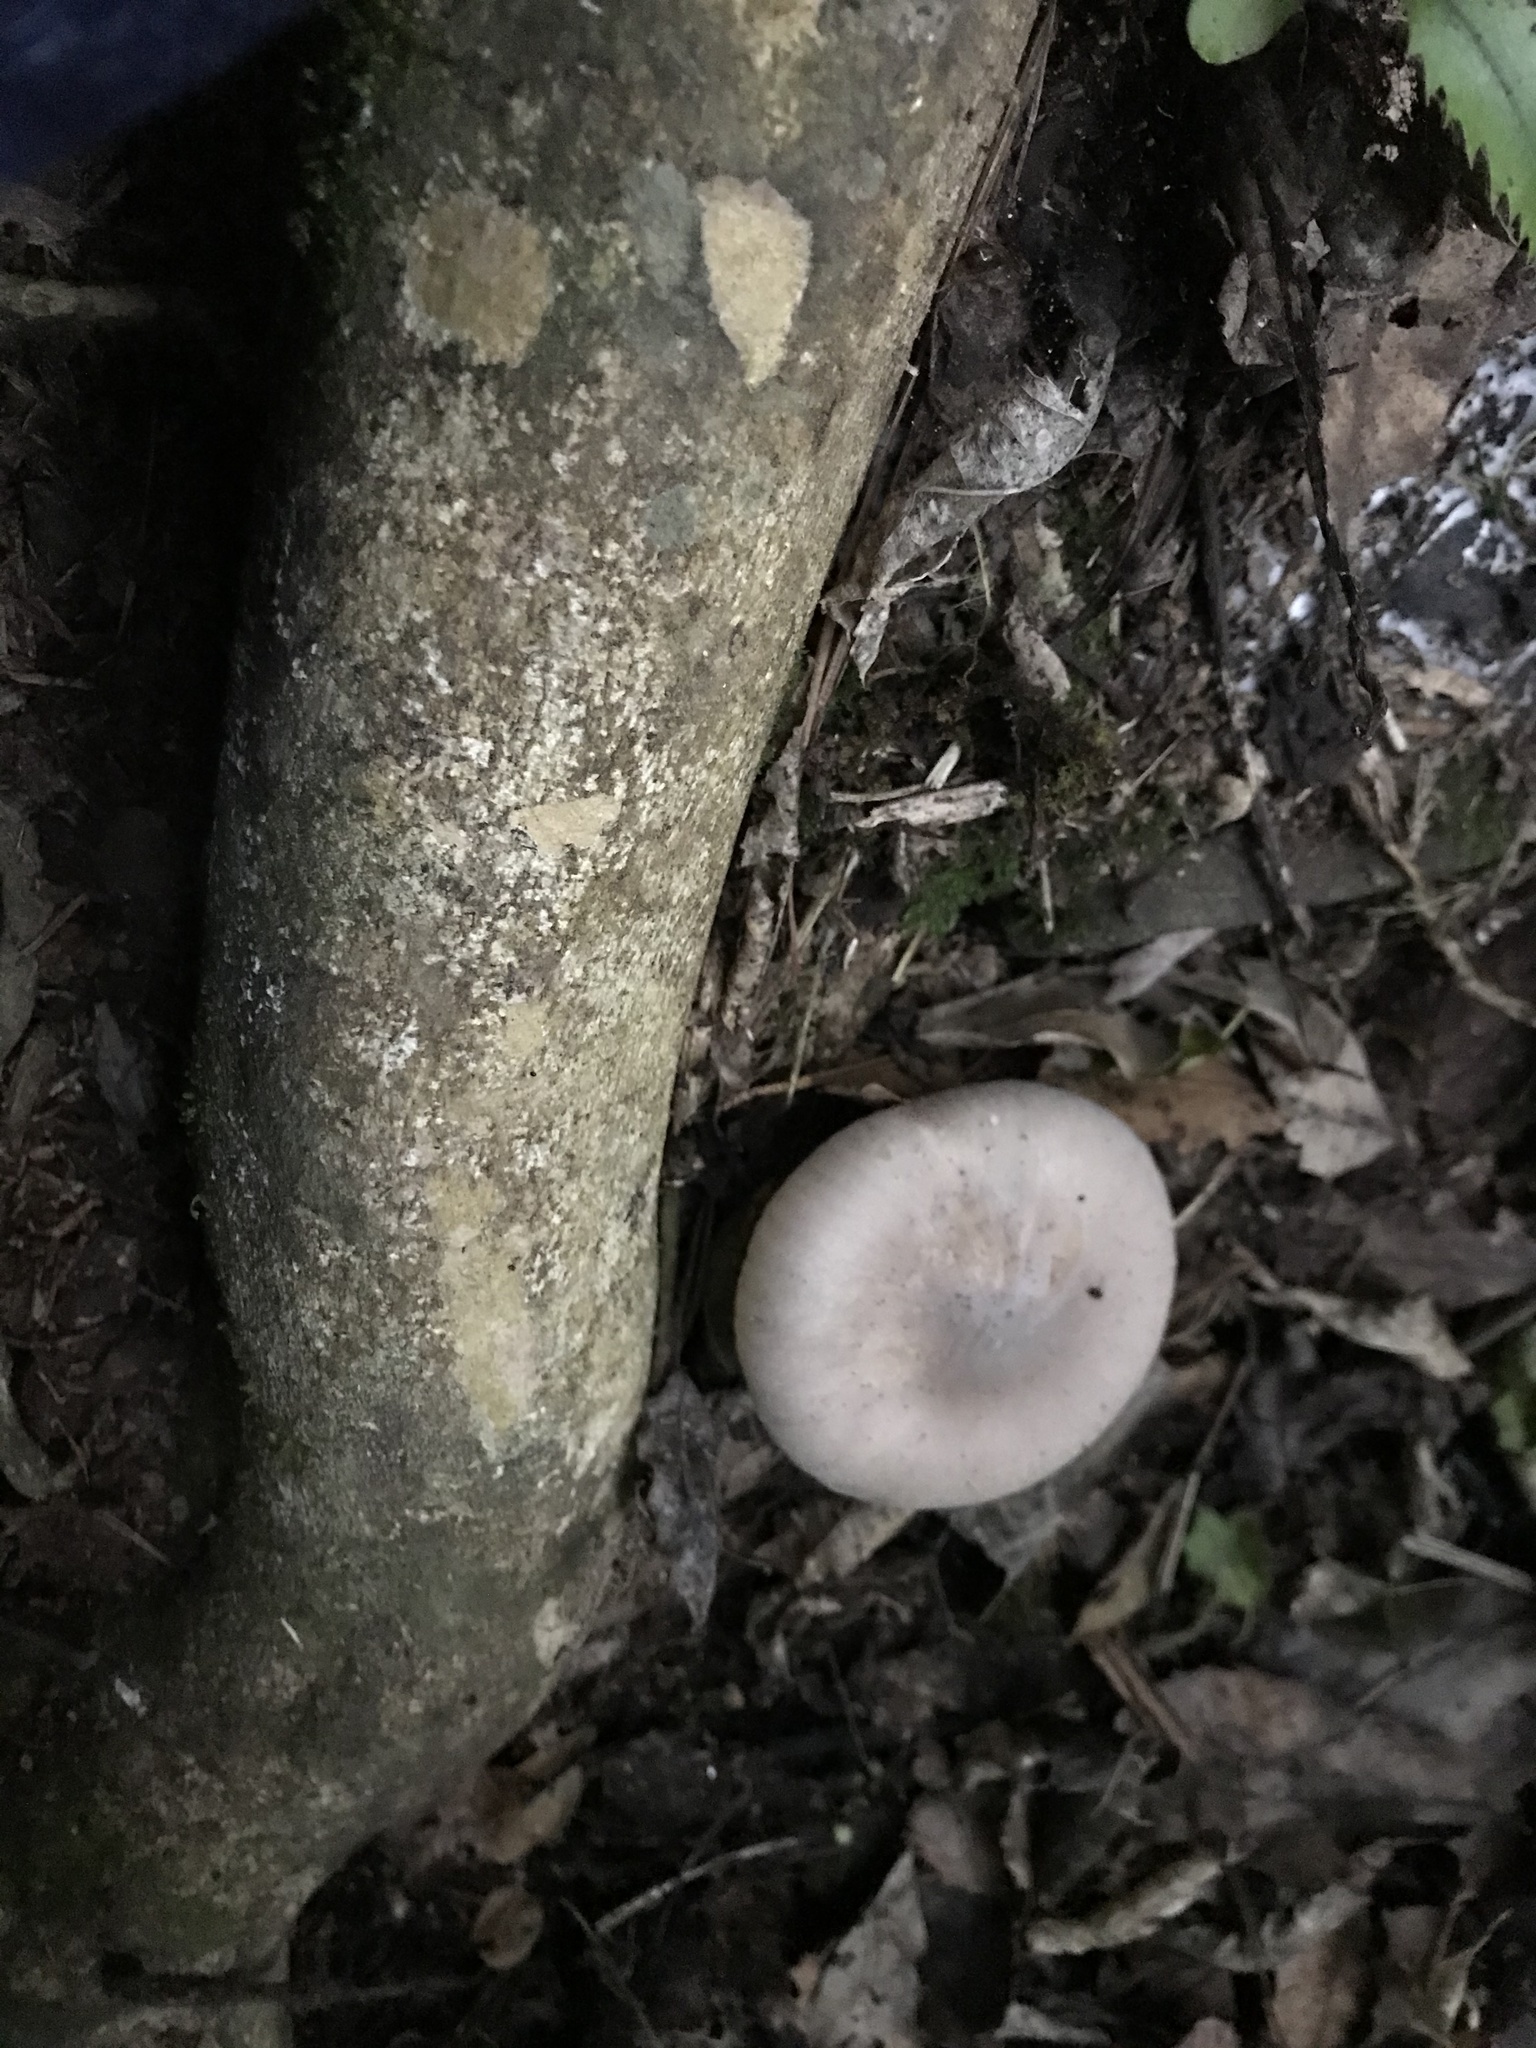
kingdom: Fungi
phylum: Basidiomycota
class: Agaricomycetes
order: Agaricales
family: Tricholomataceae
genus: Clitocybe
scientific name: Clitocybe nebularis
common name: Clouded agaric
